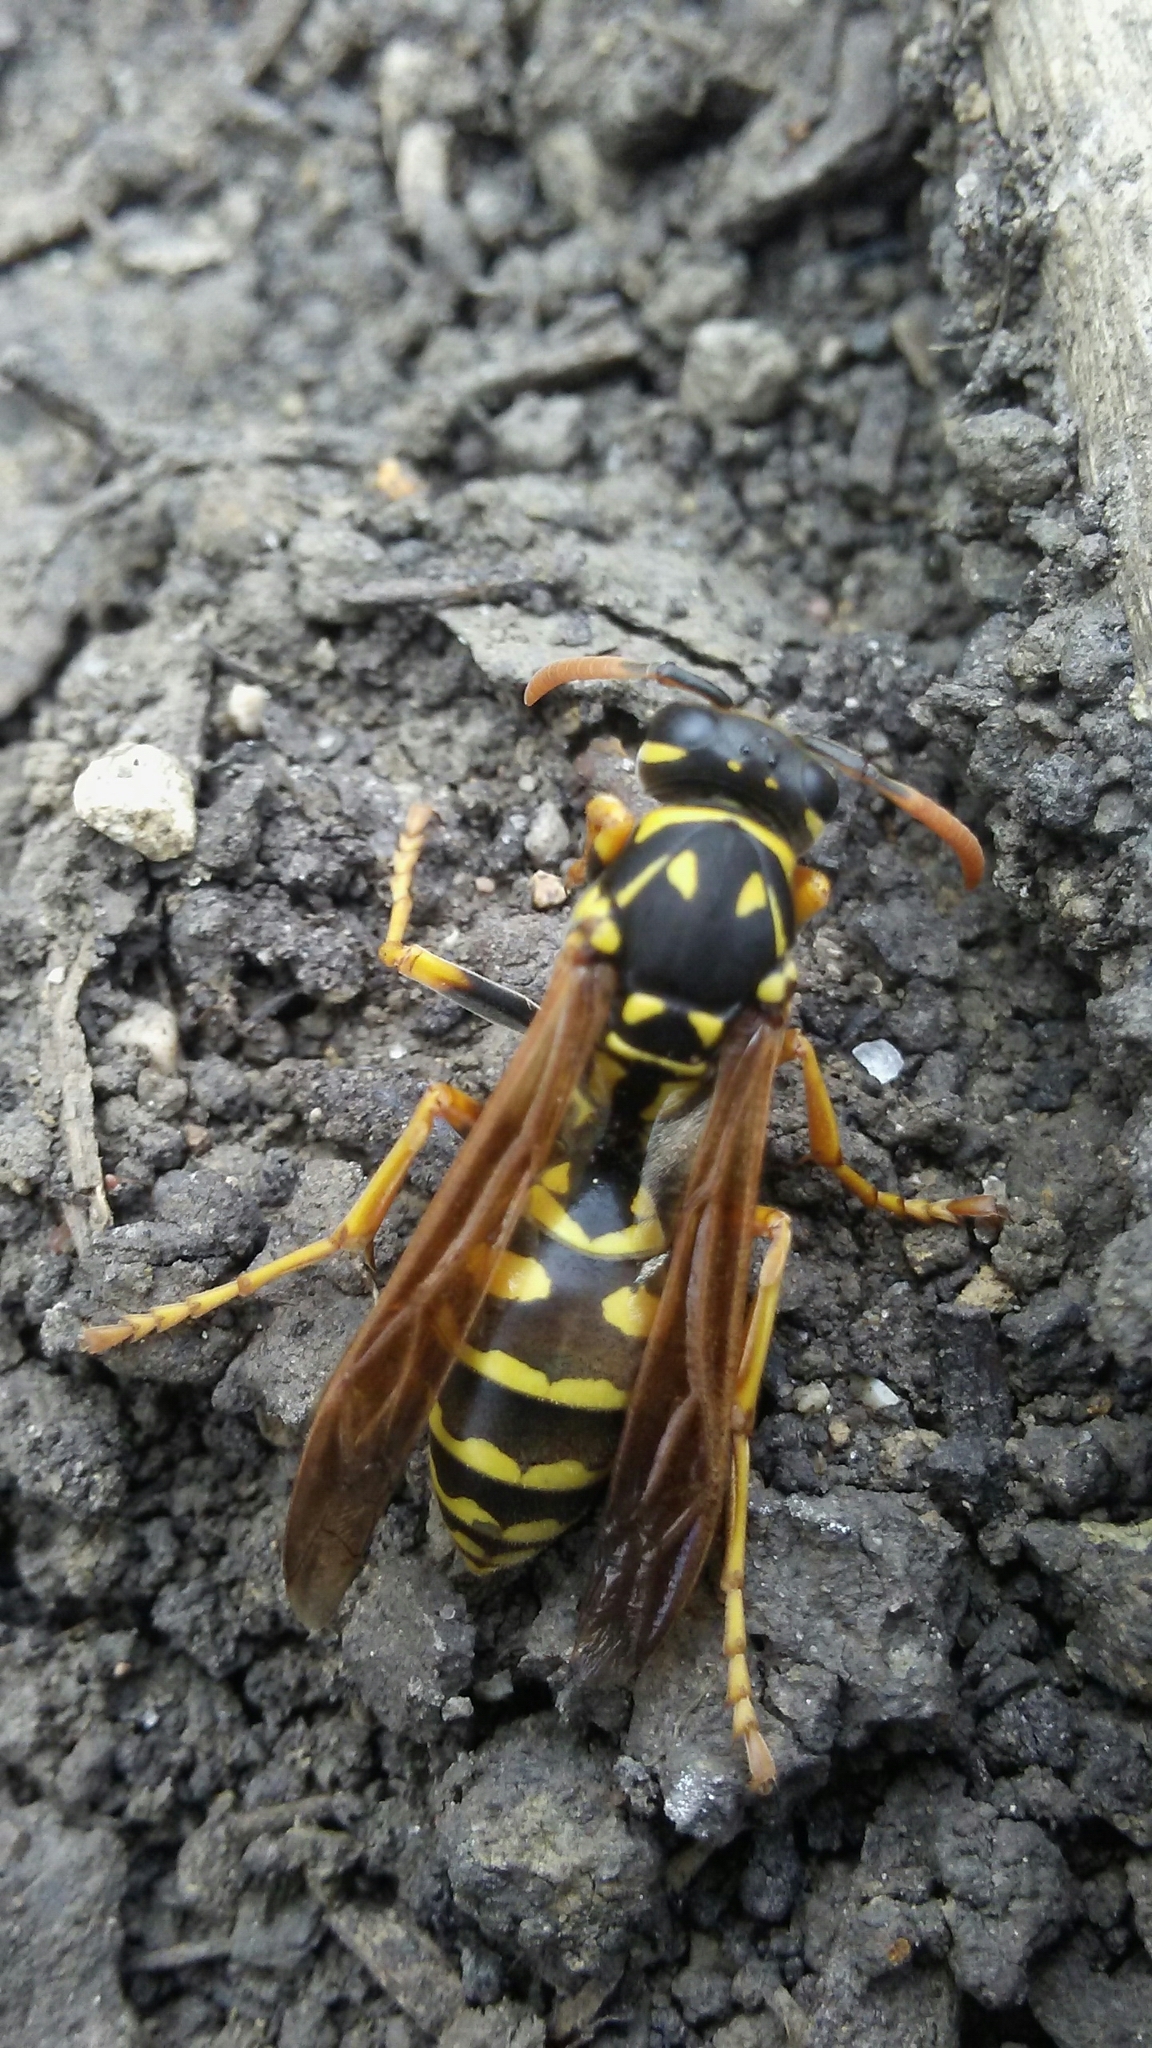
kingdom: Animalia
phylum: Arthropoda
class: Insecta
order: Hymenoptera
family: Eumenidae
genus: Polistes
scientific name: Polistes dominula
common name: Paper wasp
